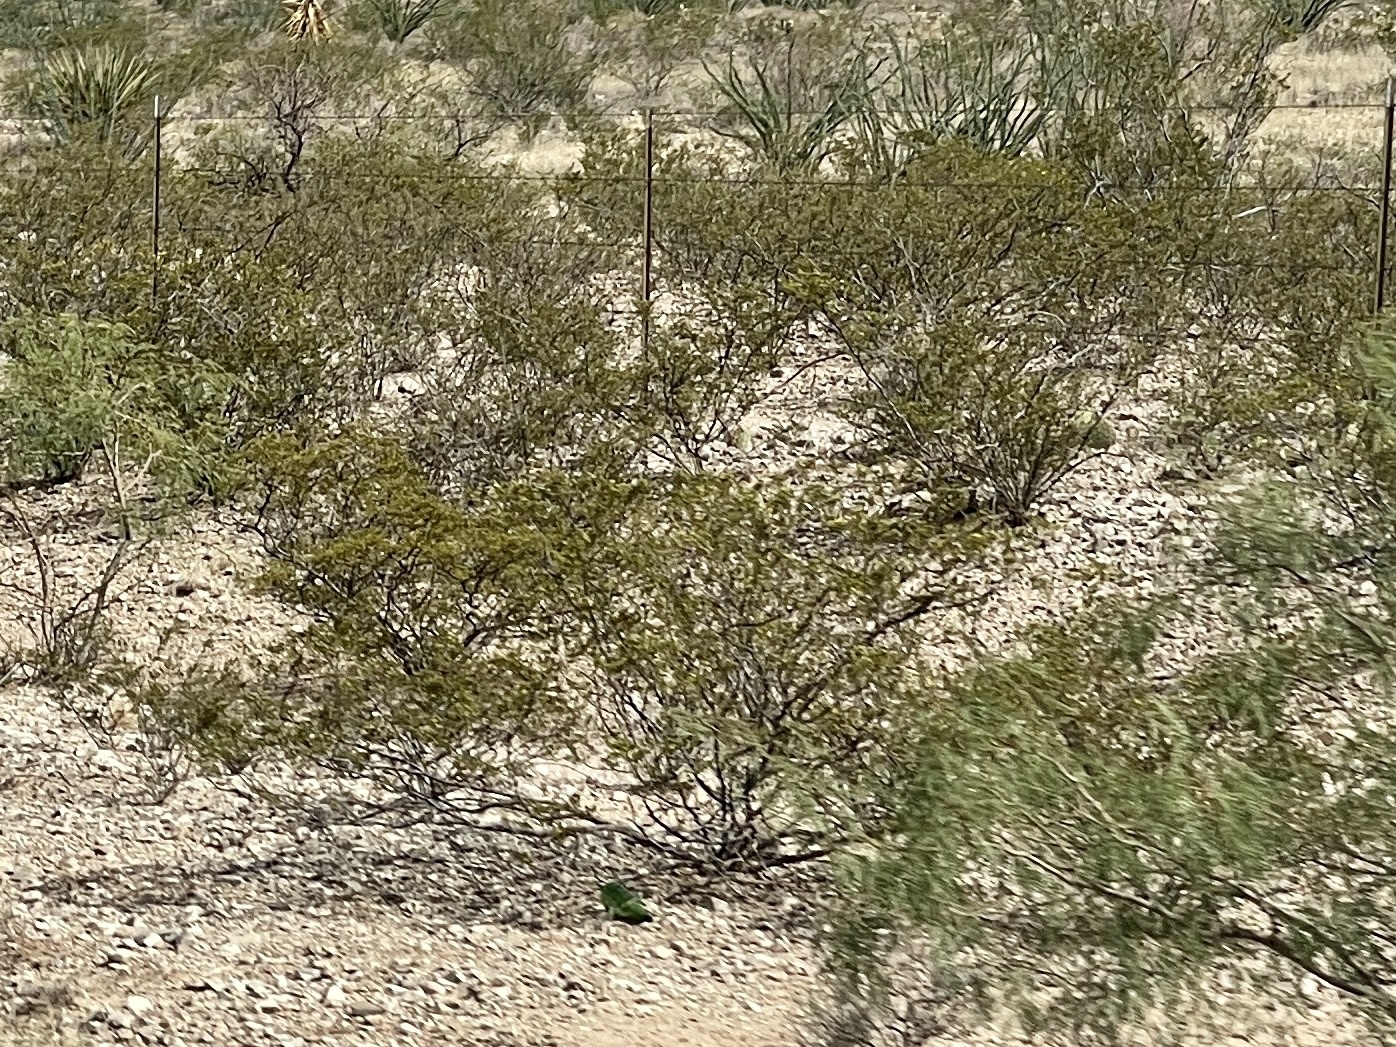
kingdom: Plantae
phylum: Tracheophyta
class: Magnoliopsida
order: Zygophyllales
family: Zygophyllaceae
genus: Larrea
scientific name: Larrea tridentata
